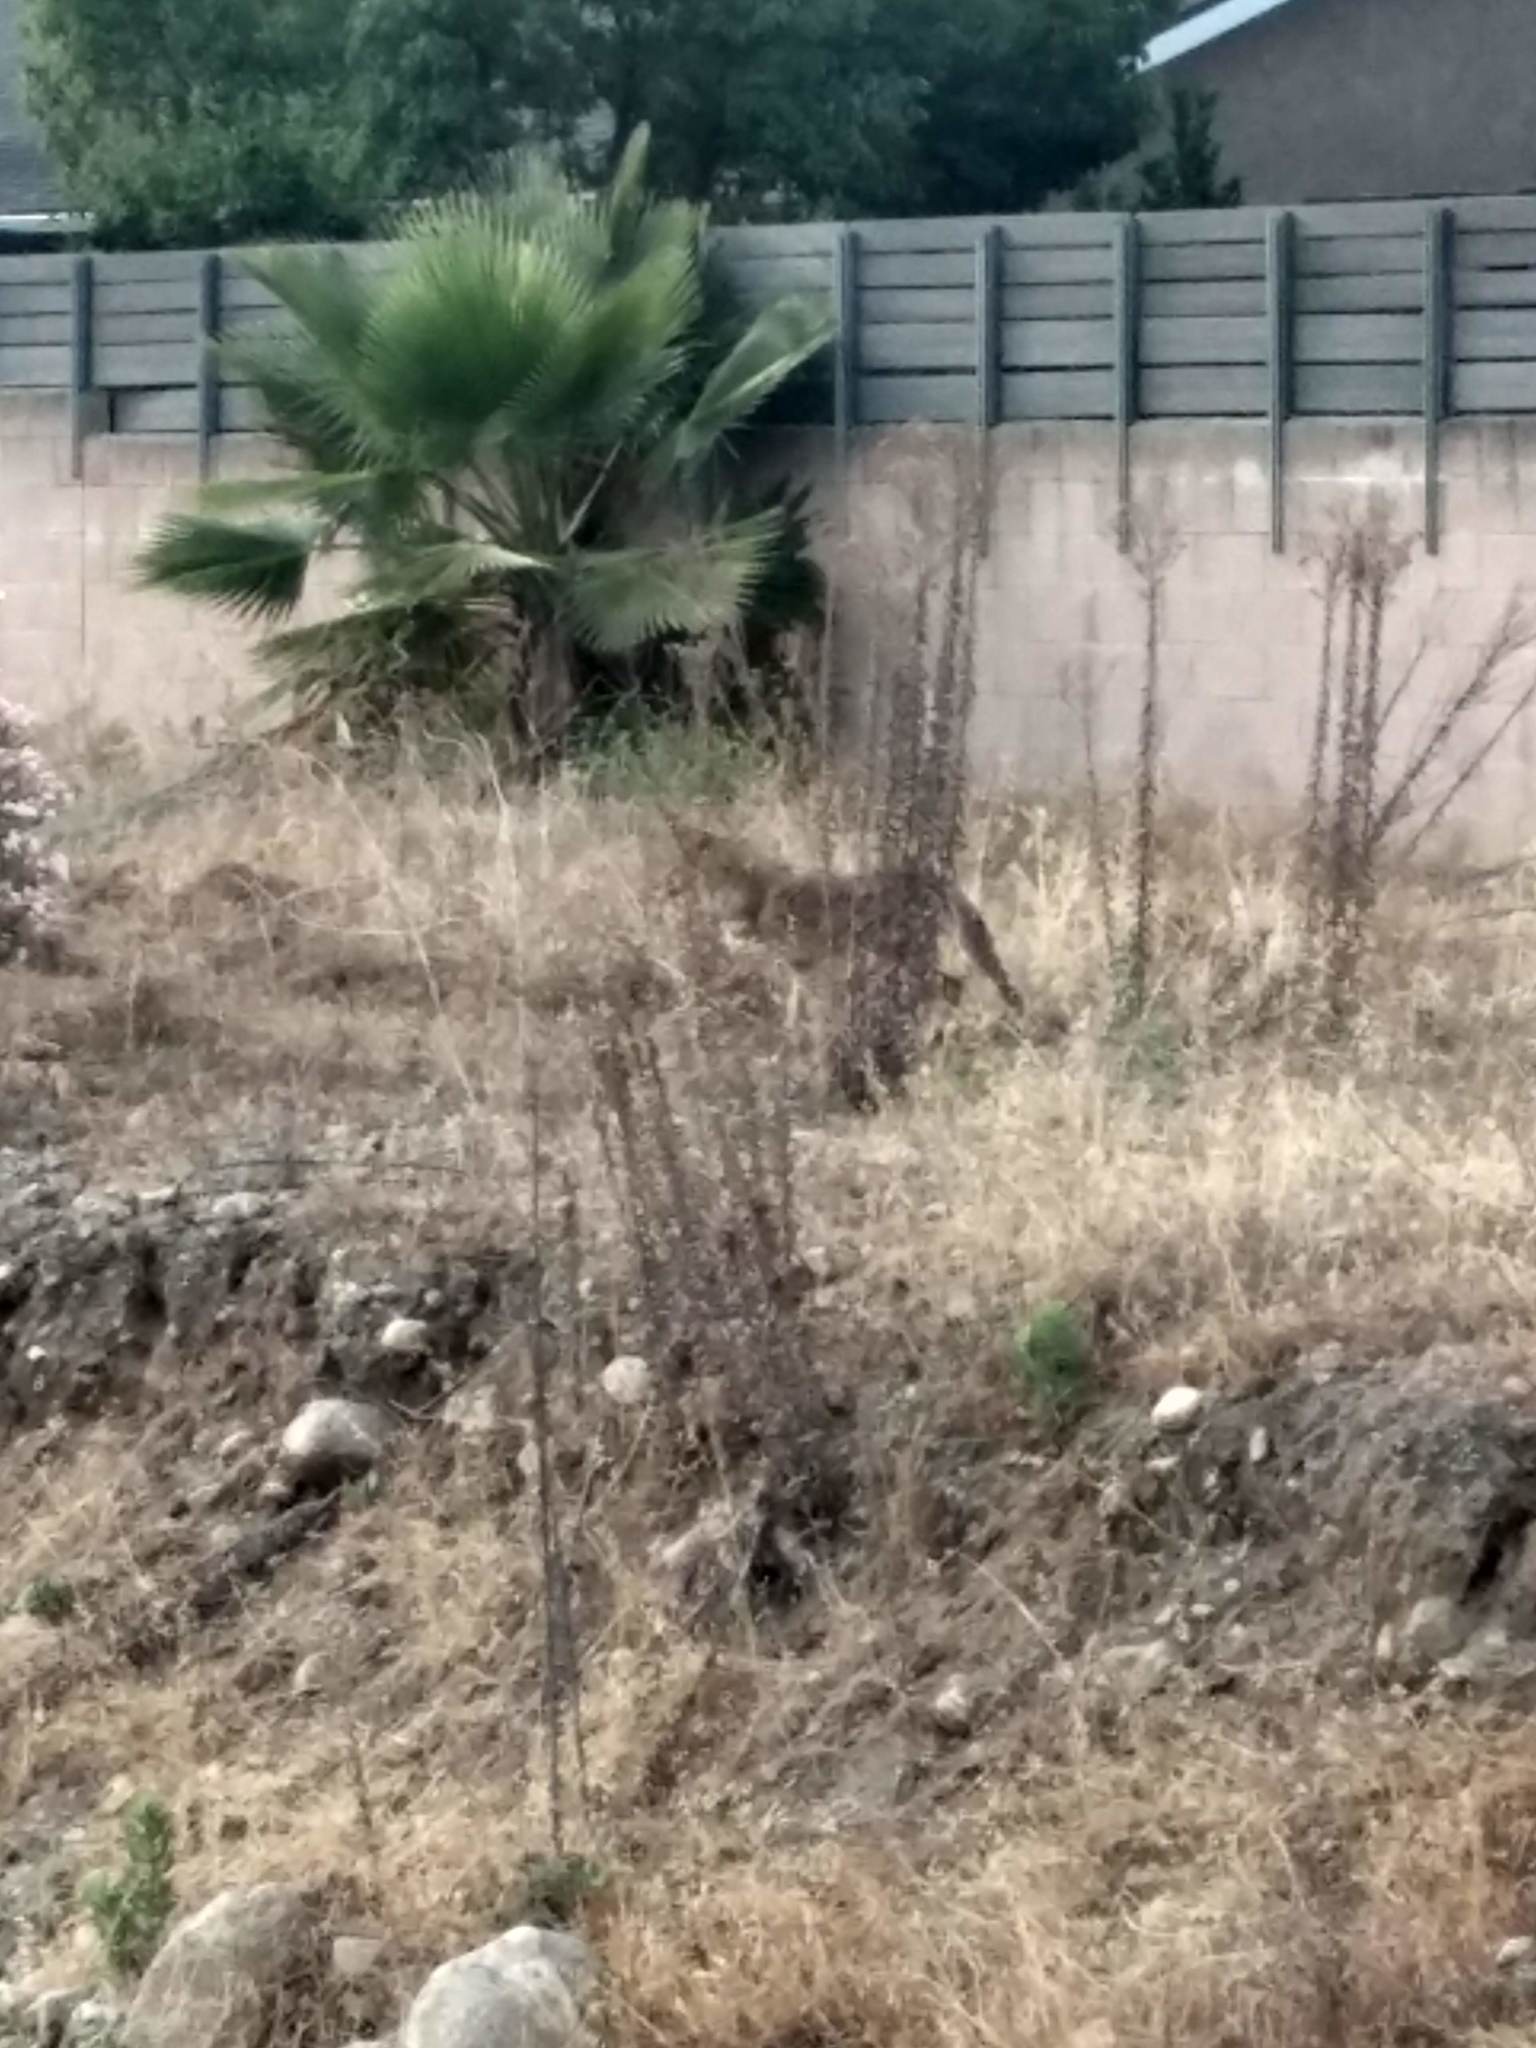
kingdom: Animalia
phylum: Chordata
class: Mammalia
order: Carnivora
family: Canidae
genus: Canis
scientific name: Canis latrans
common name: Coyote
